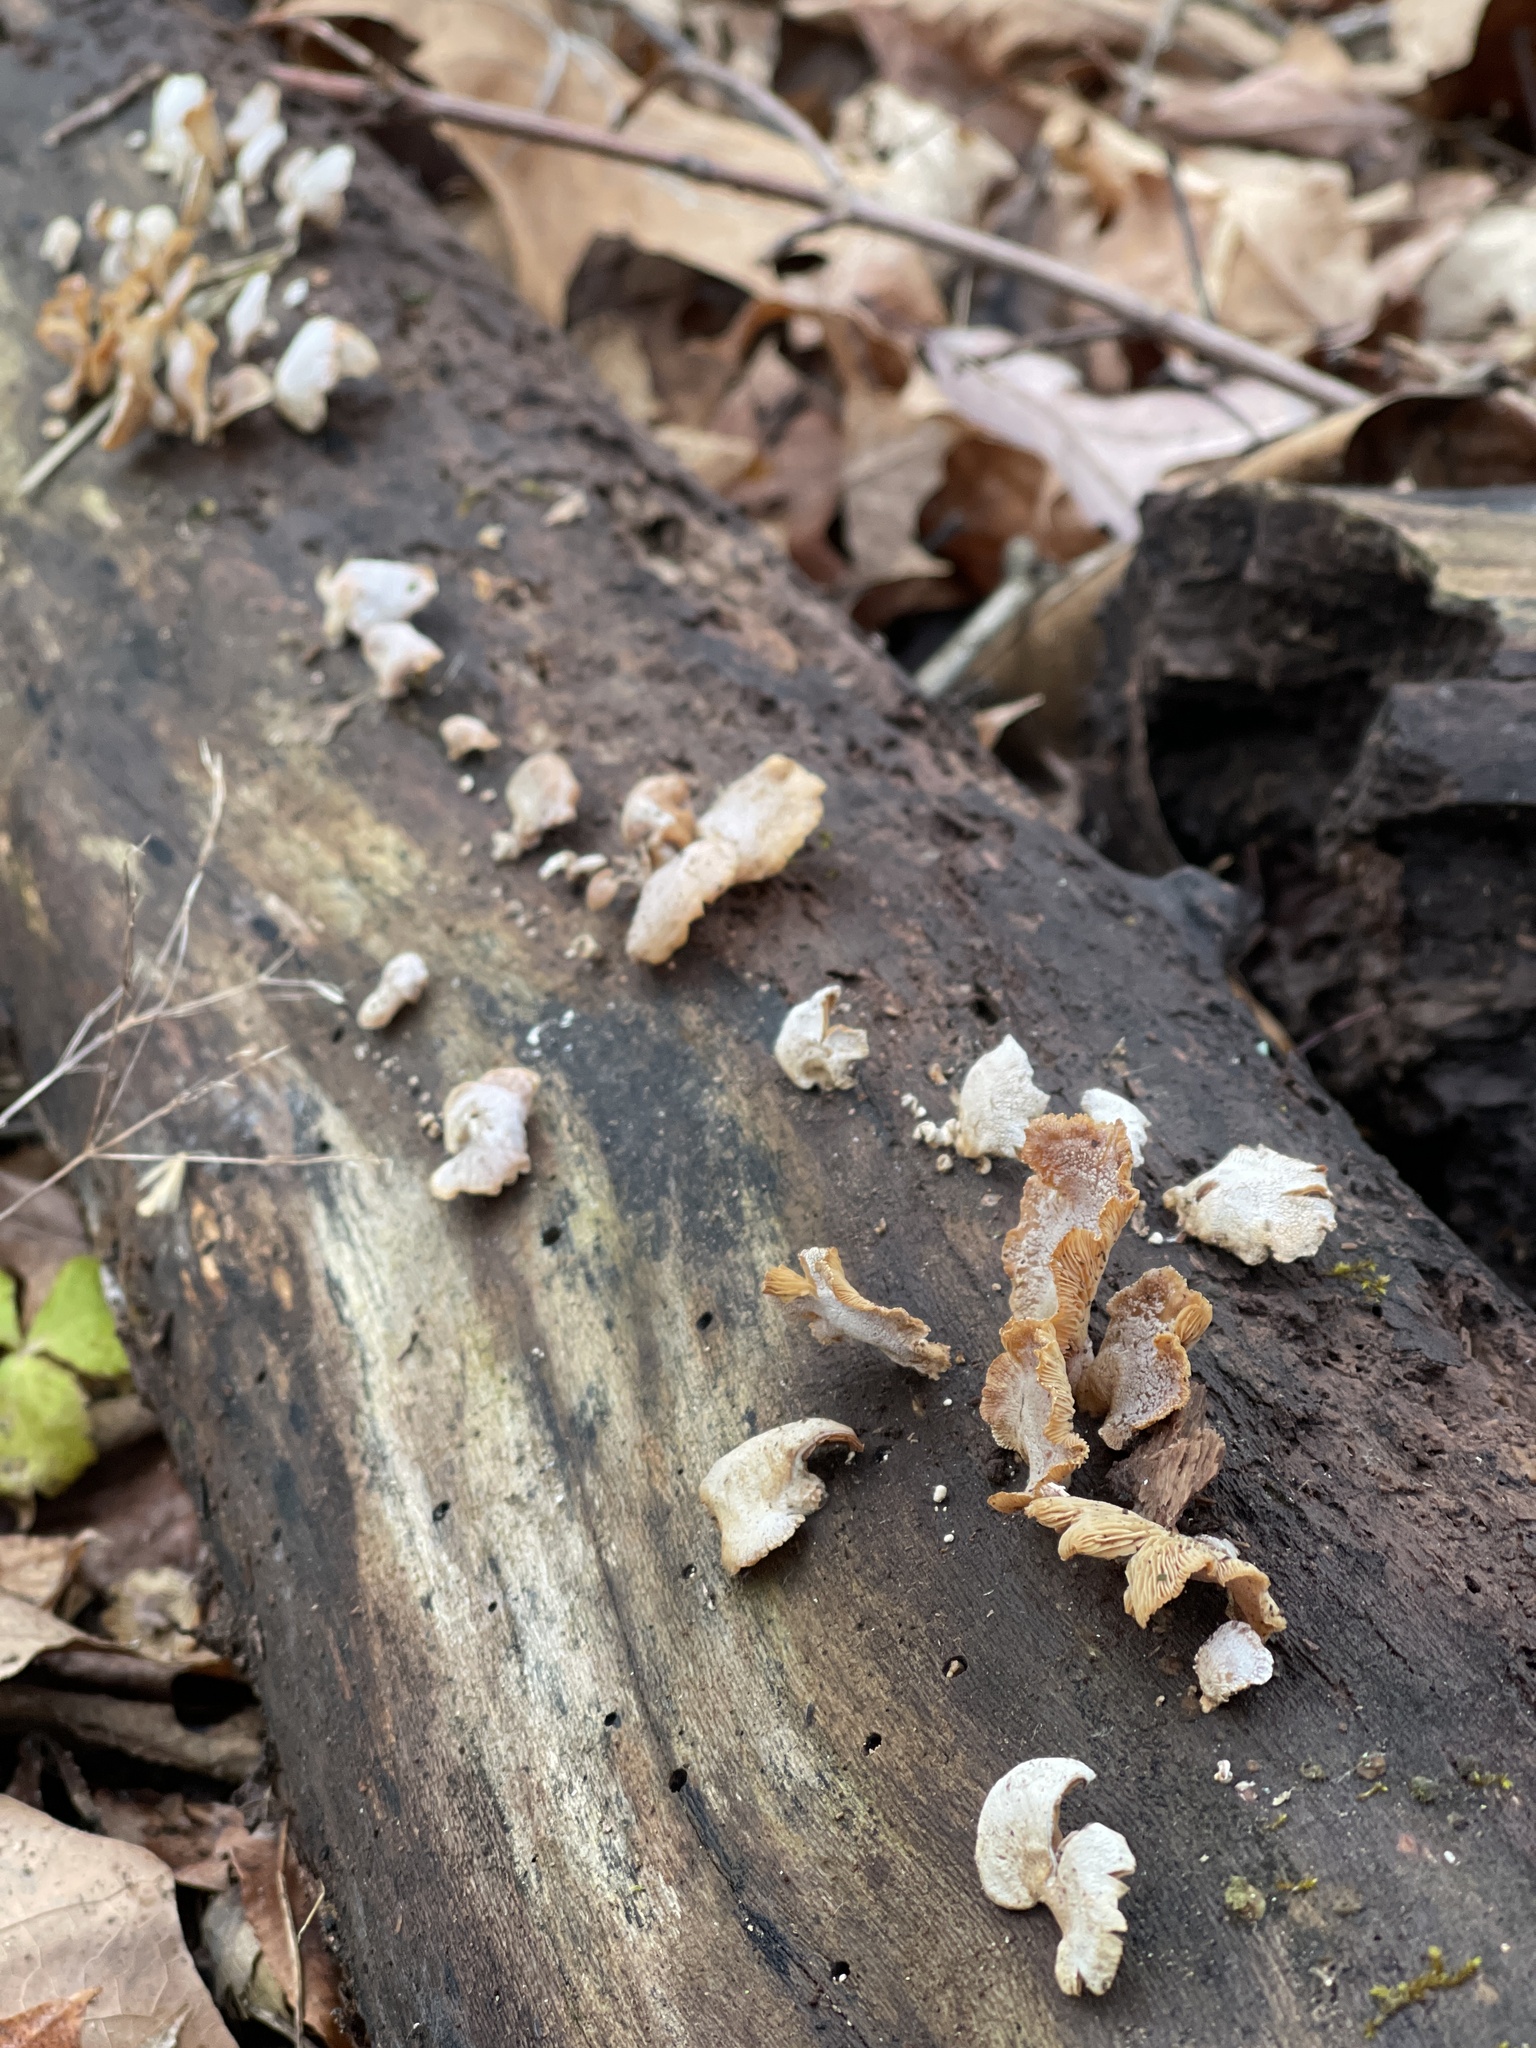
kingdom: Fungi
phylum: Basidiomycota
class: Agaricomycetes
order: Agaricales
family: Mycenaceae
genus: Panellus
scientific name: Panellus stipticus
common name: Bitter oysterling
